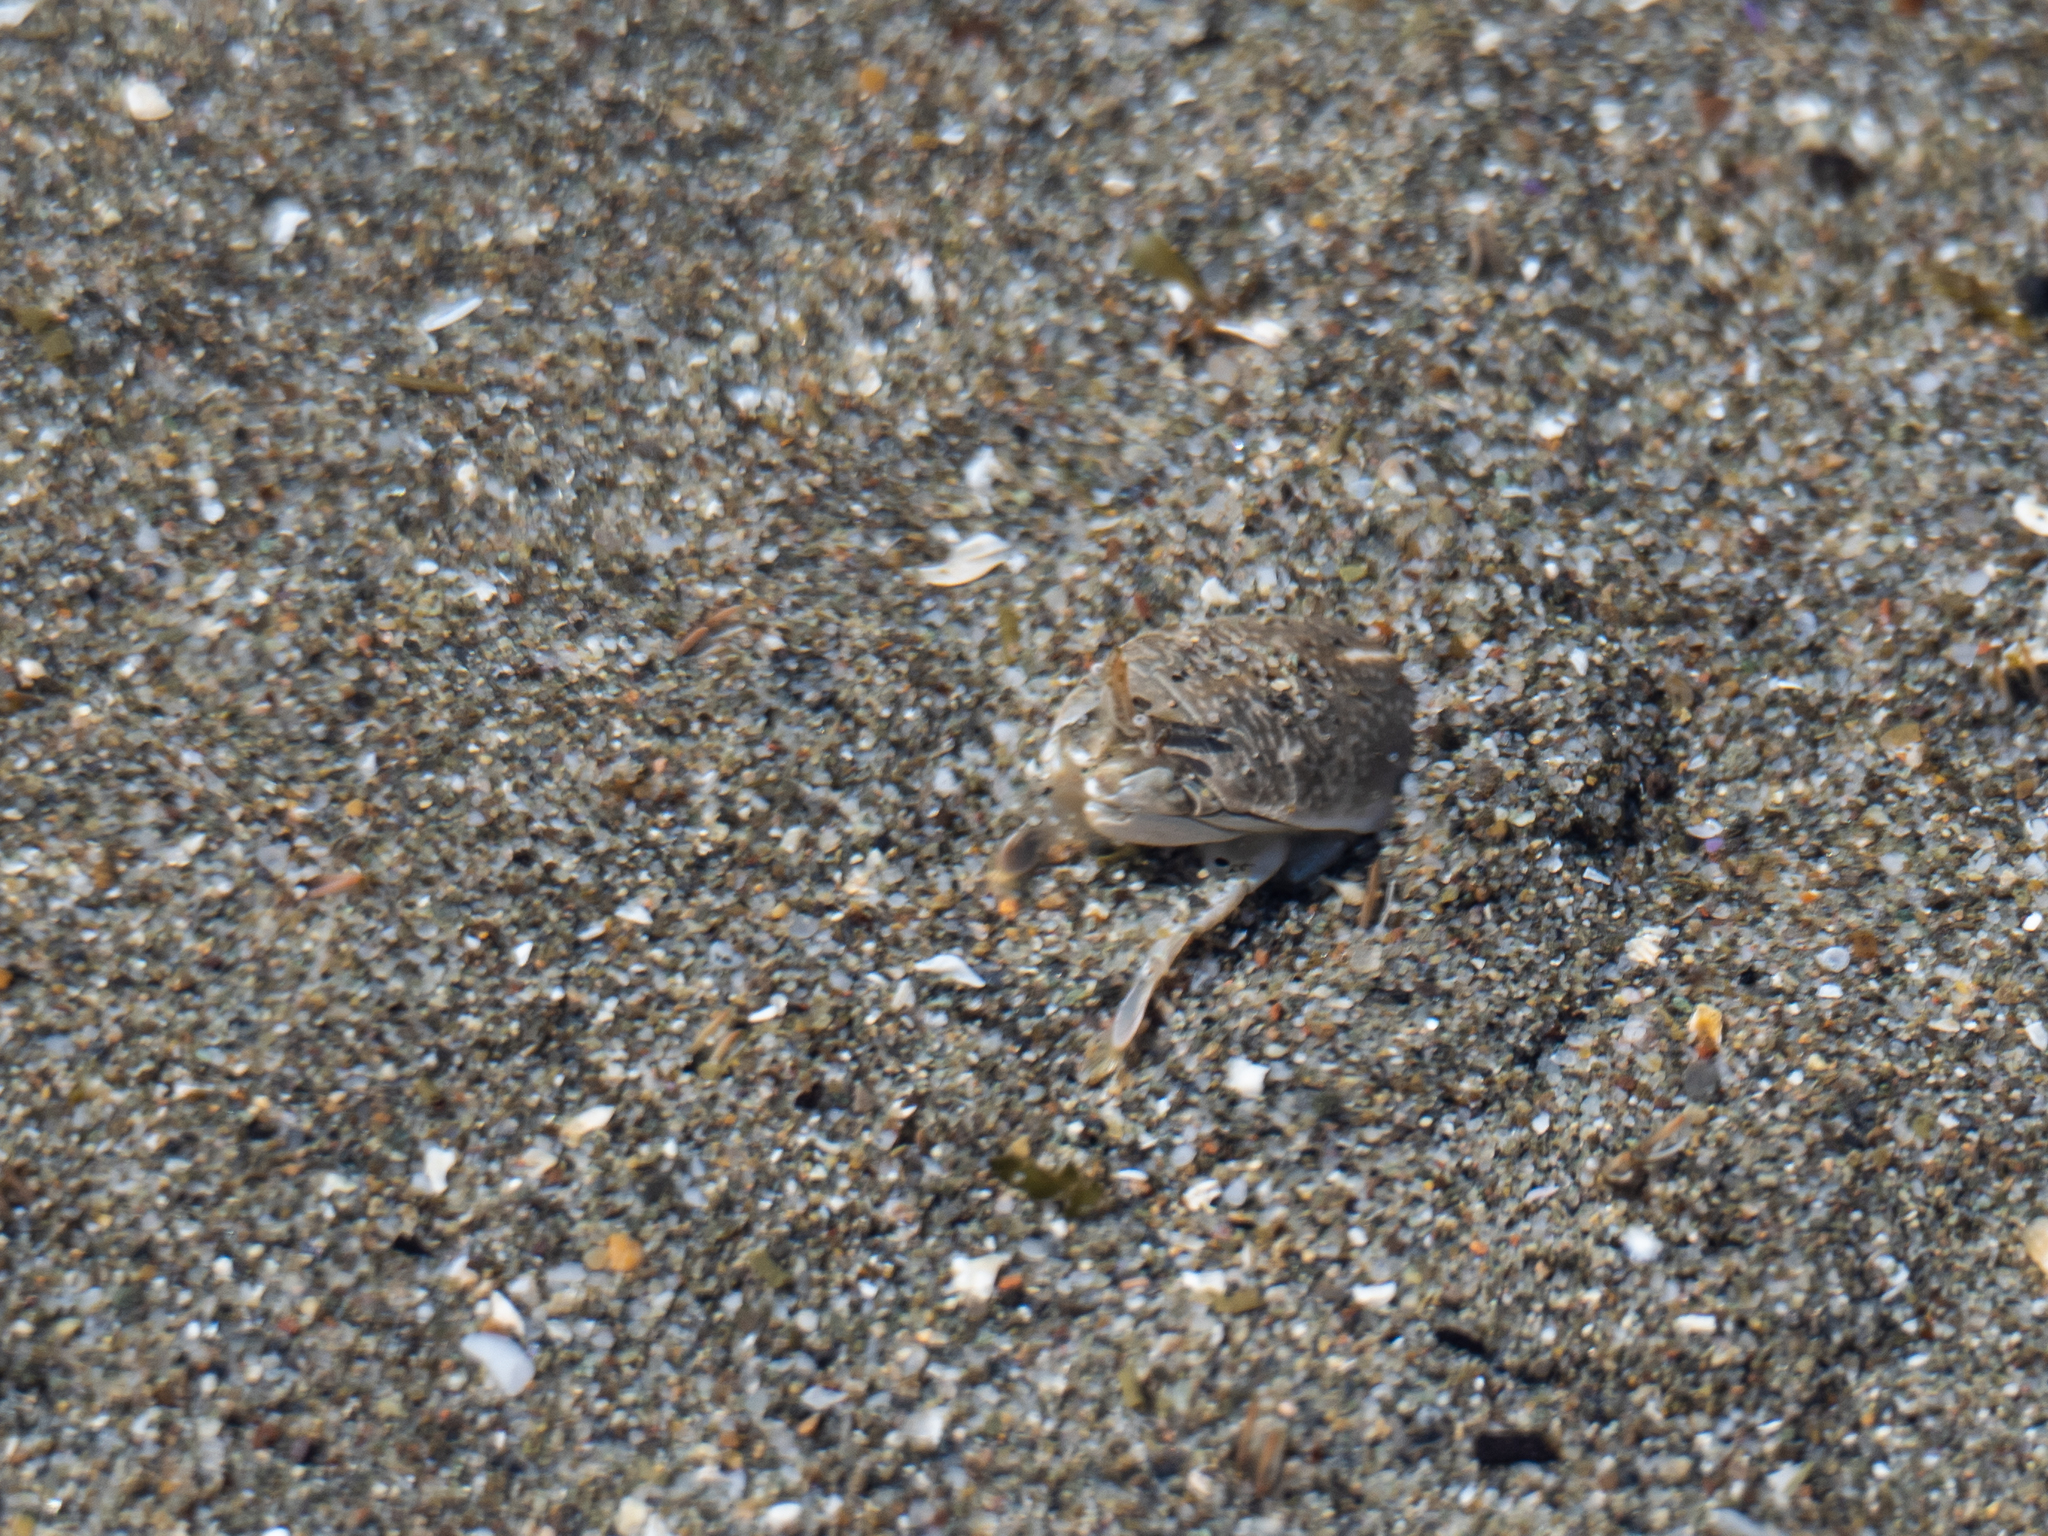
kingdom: Animalia
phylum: Arthropoda
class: Malacostraca
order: Decapoda
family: Hippidae
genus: Emerita
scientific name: Emerita analoga
